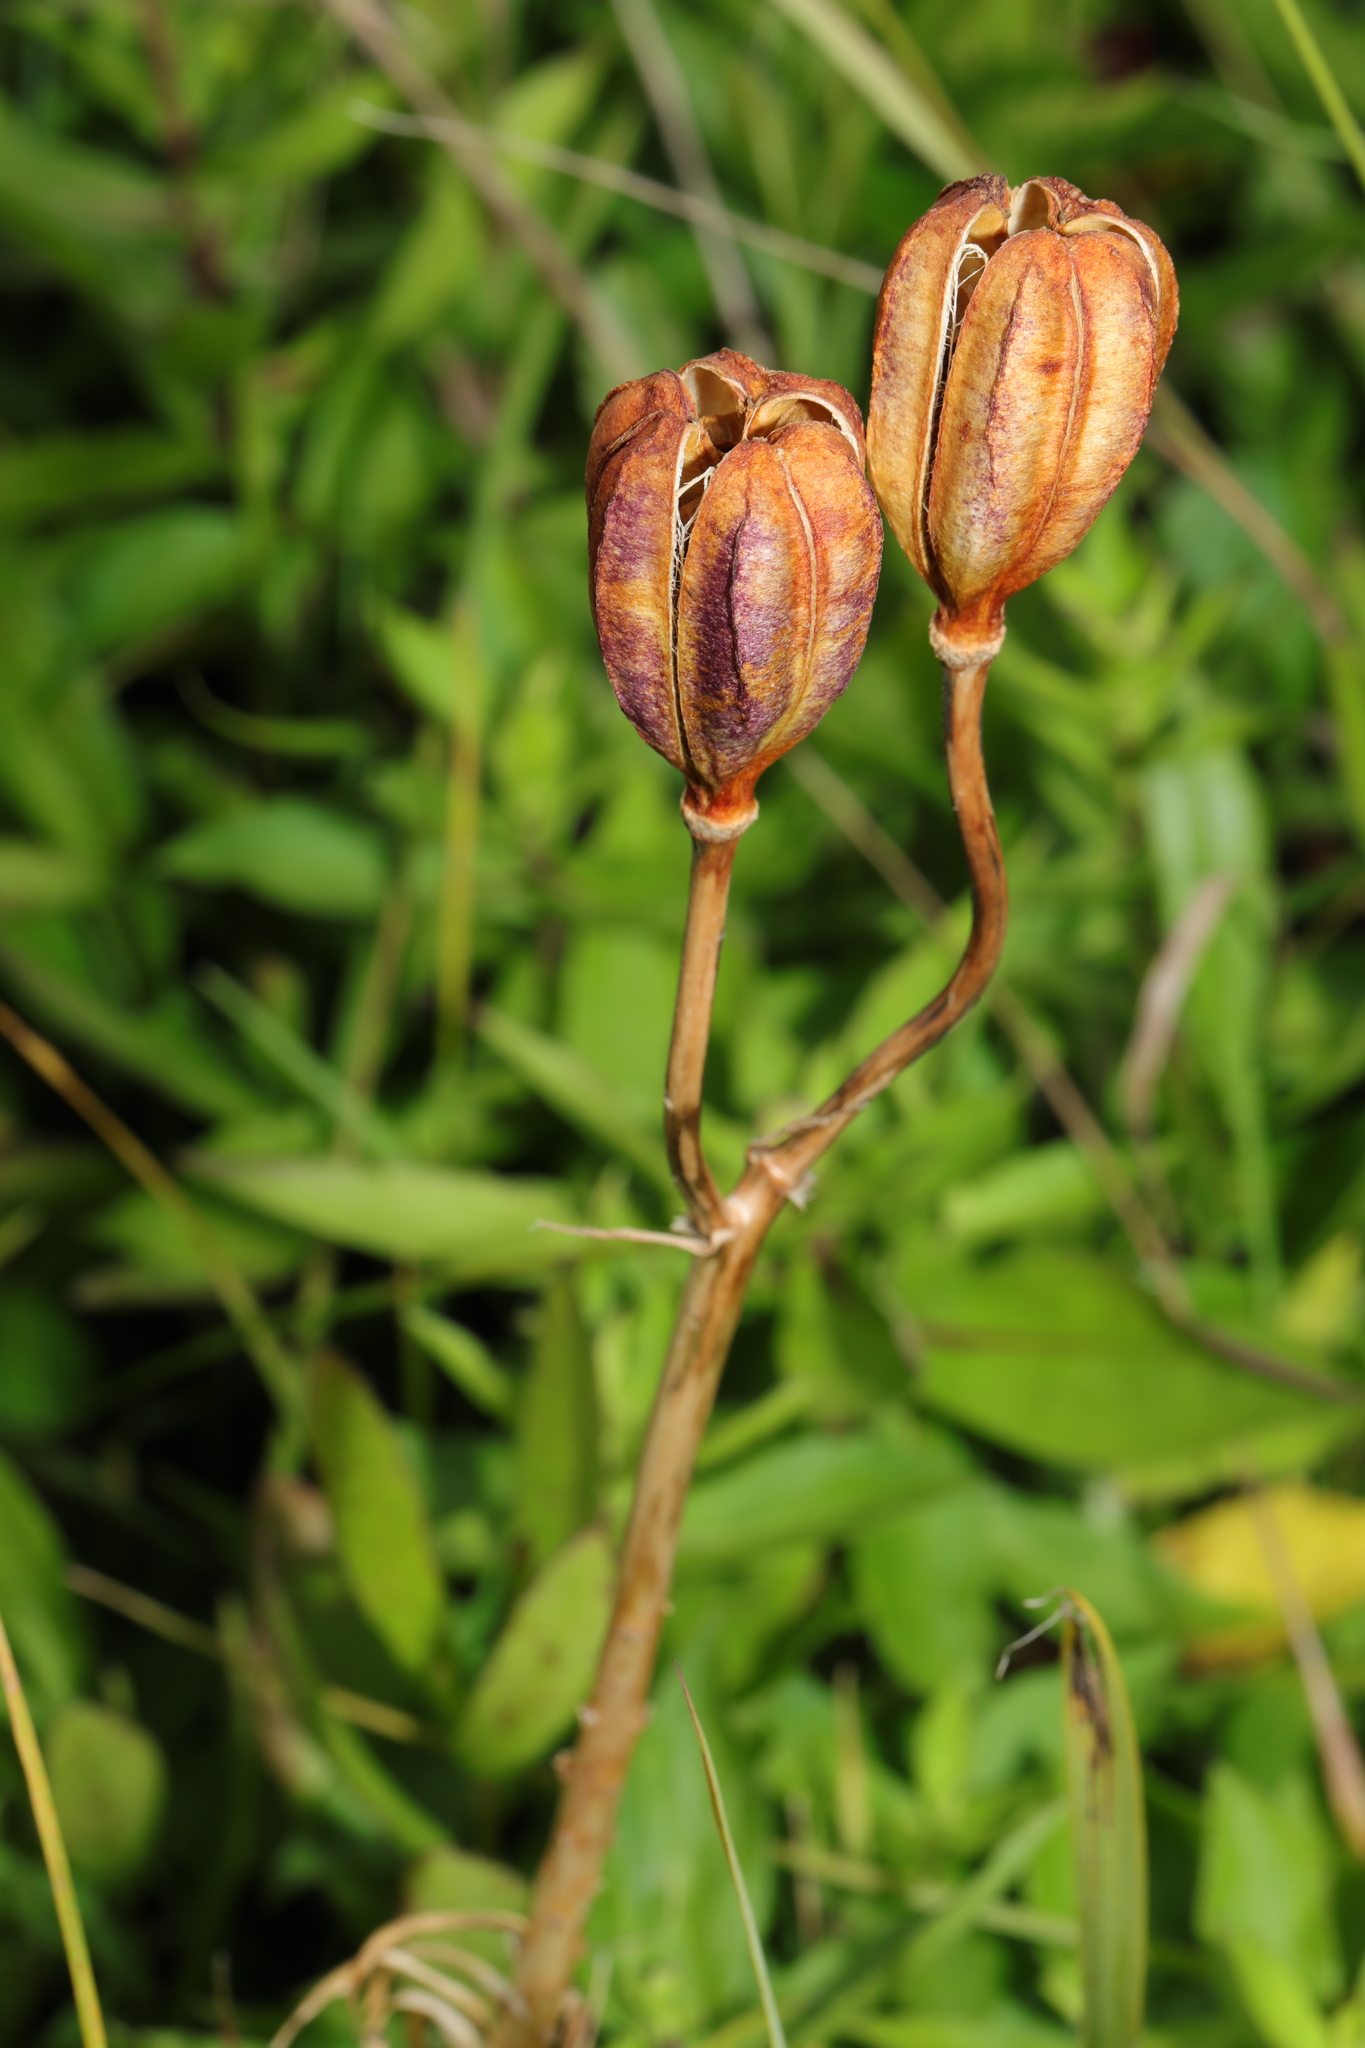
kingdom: Plantae
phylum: Tracheophyta
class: Liliopsida
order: Liliales
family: Liliaceae
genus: Lilium
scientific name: Lilium pyrenaicum
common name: Pyrenean lily
